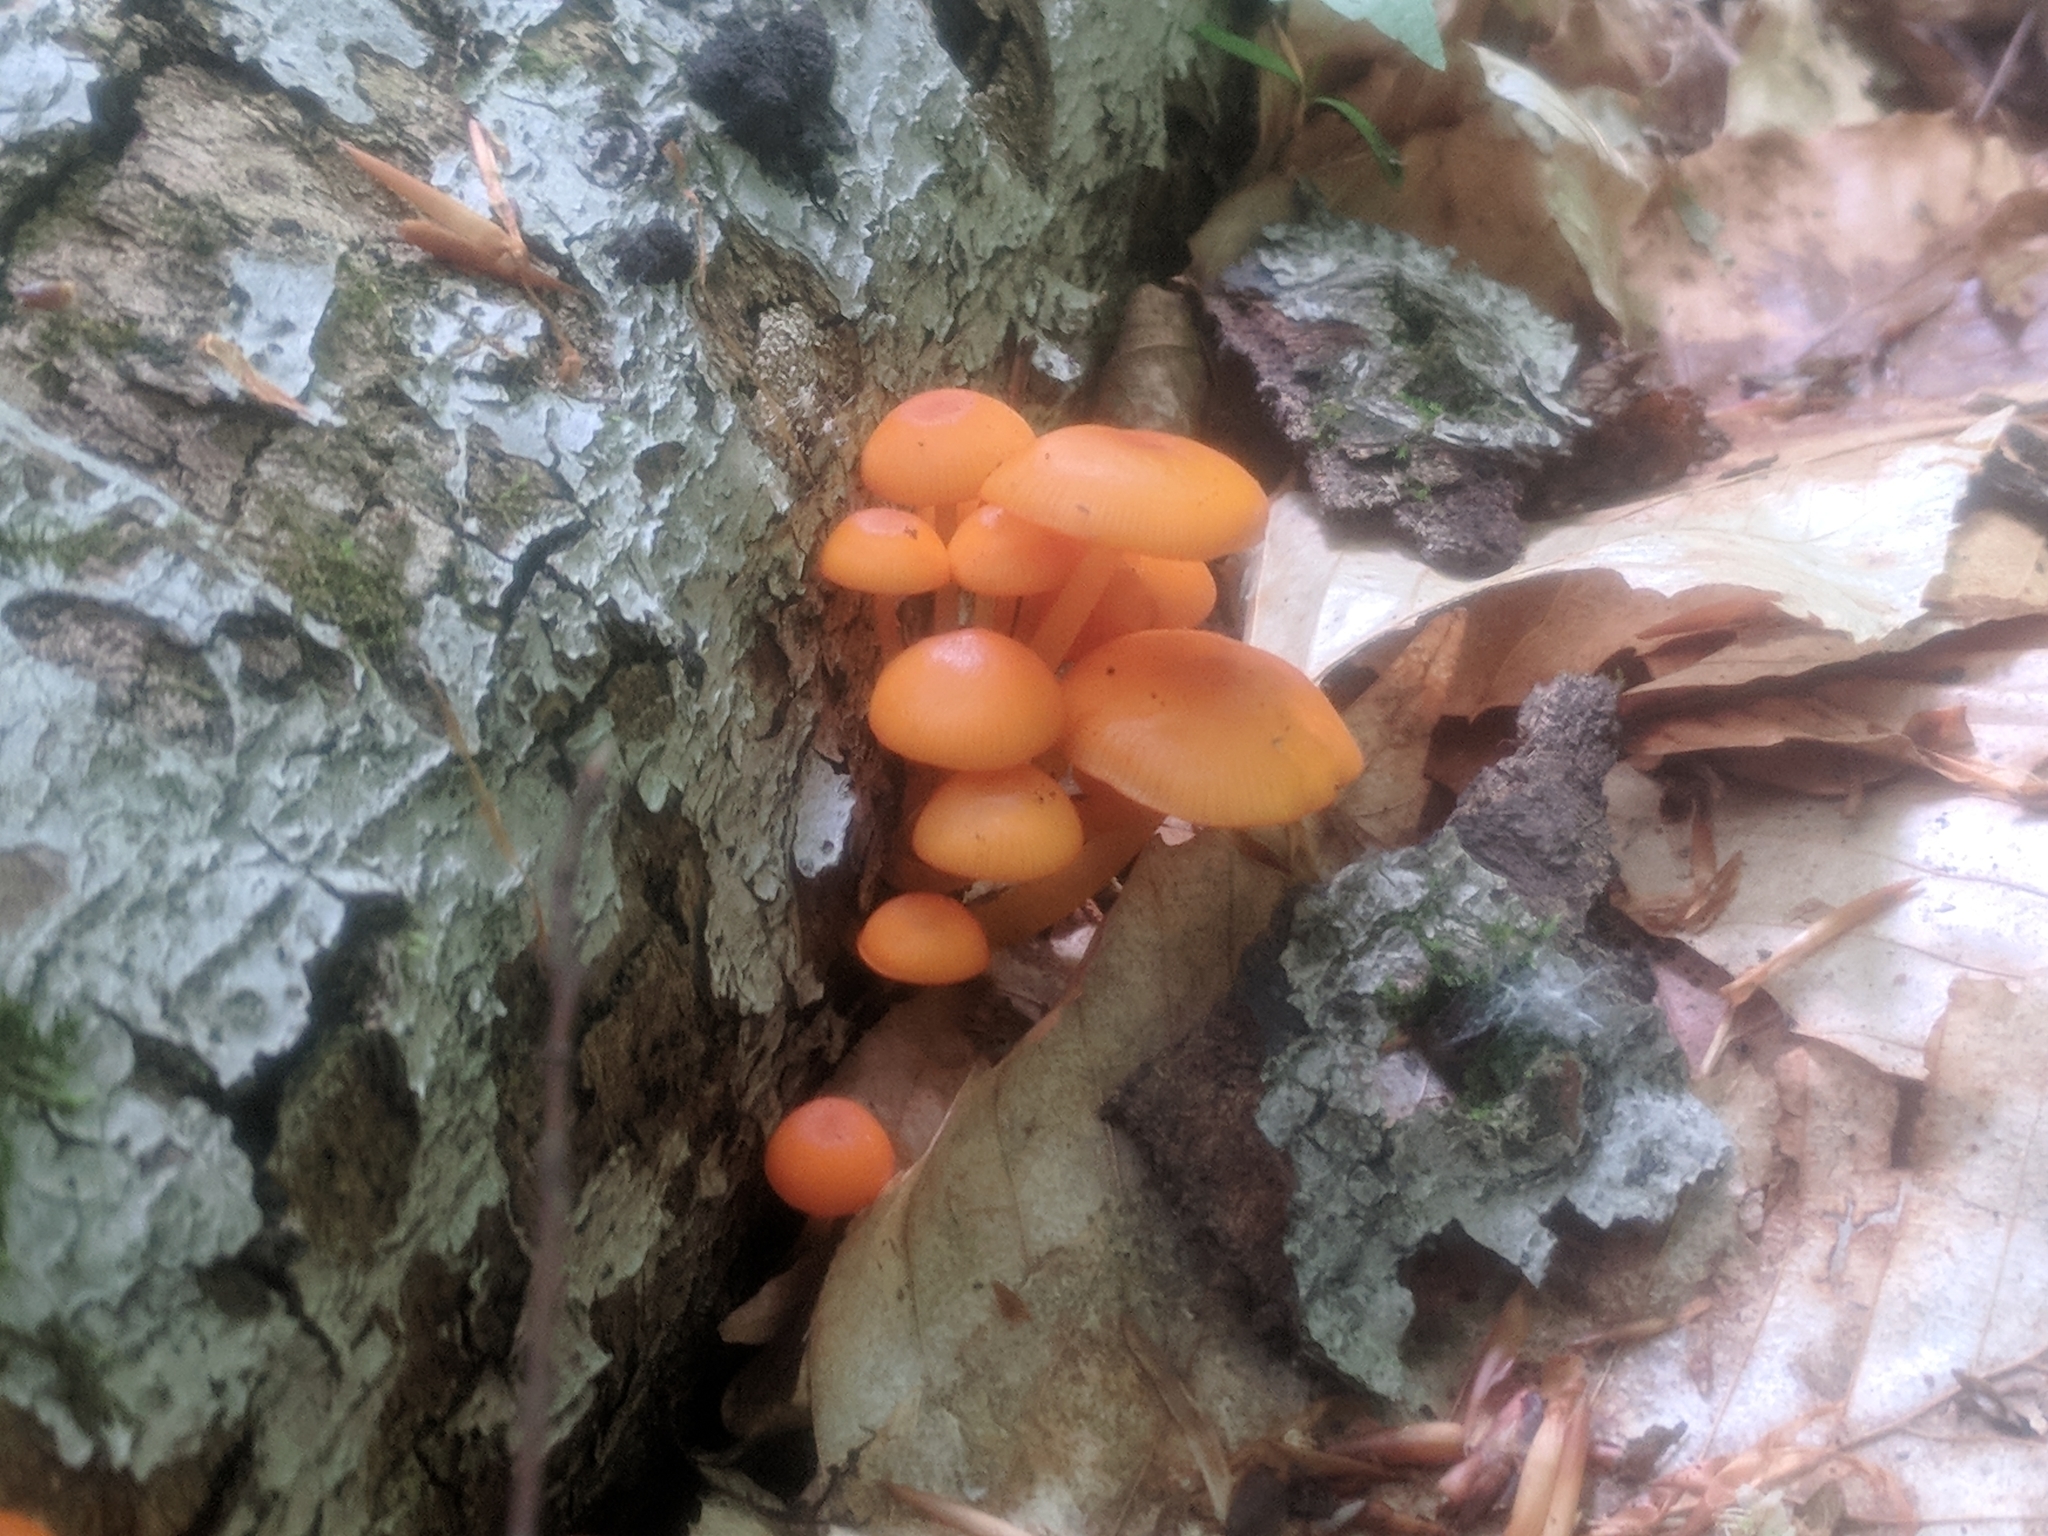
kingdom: Fungi
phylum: Basidiomycota
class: Agaricomycetes
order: Agaricales
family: Mycenaceae
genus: Mycena
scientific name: Mycena leaiana
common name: Orange mycena
